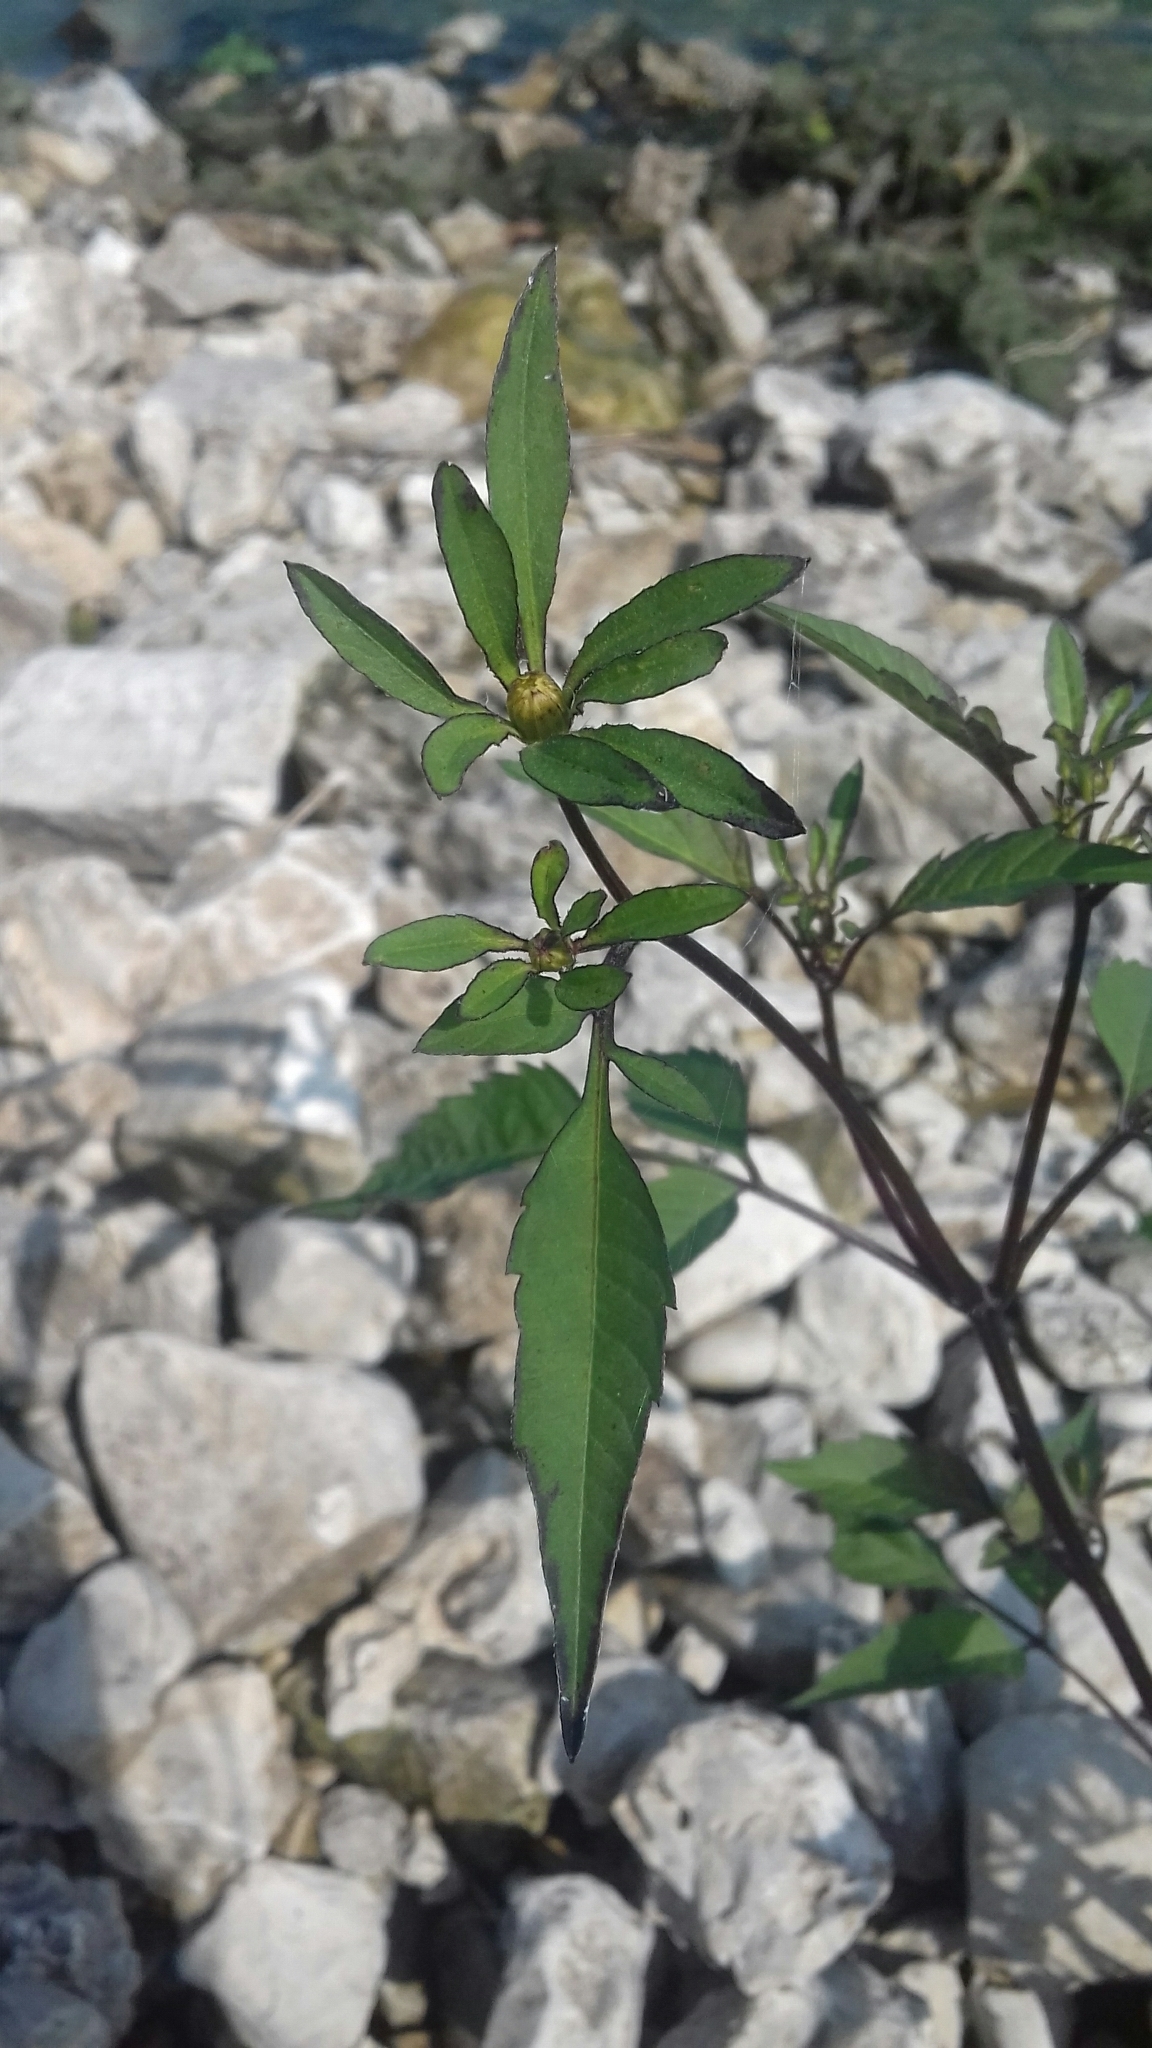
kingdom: Plantae
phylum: Tracheophyta
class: Magnoliopsida
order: Asterales
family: Asteraceae
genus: Bidens
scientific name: Bidens frondosa
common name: Beggarticks
